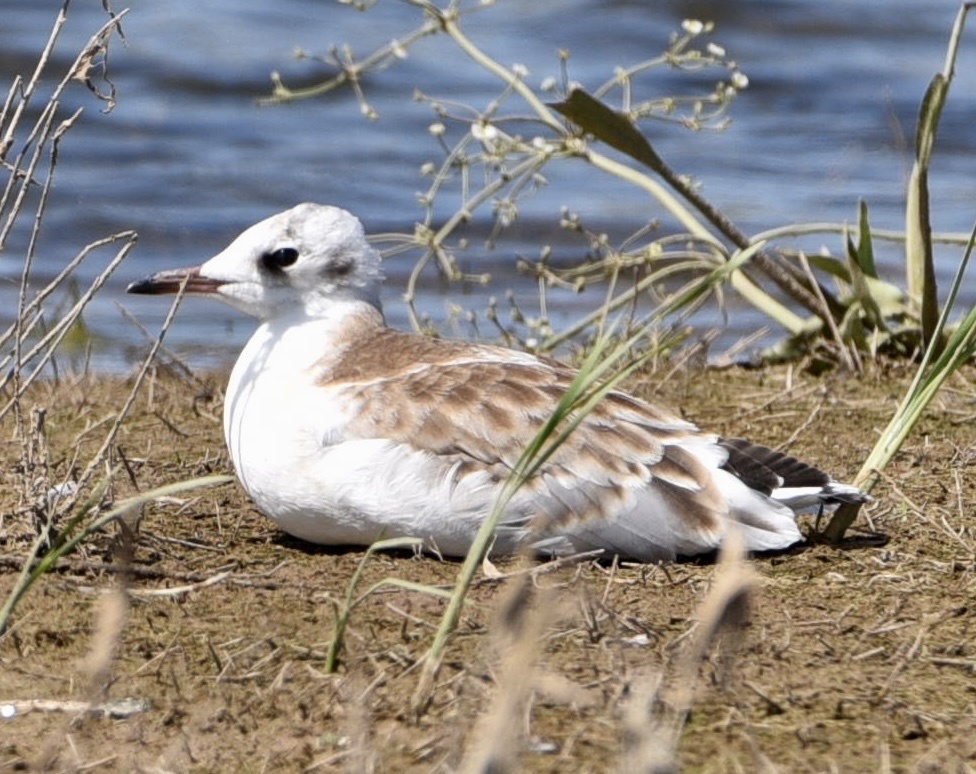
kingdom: Animalia
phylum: Chordata
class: Aves
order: Charadriiformes
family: Laridae
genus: Chroicocephalus
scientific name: Chroicocephalus ridibundus
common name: Black-headed gull
